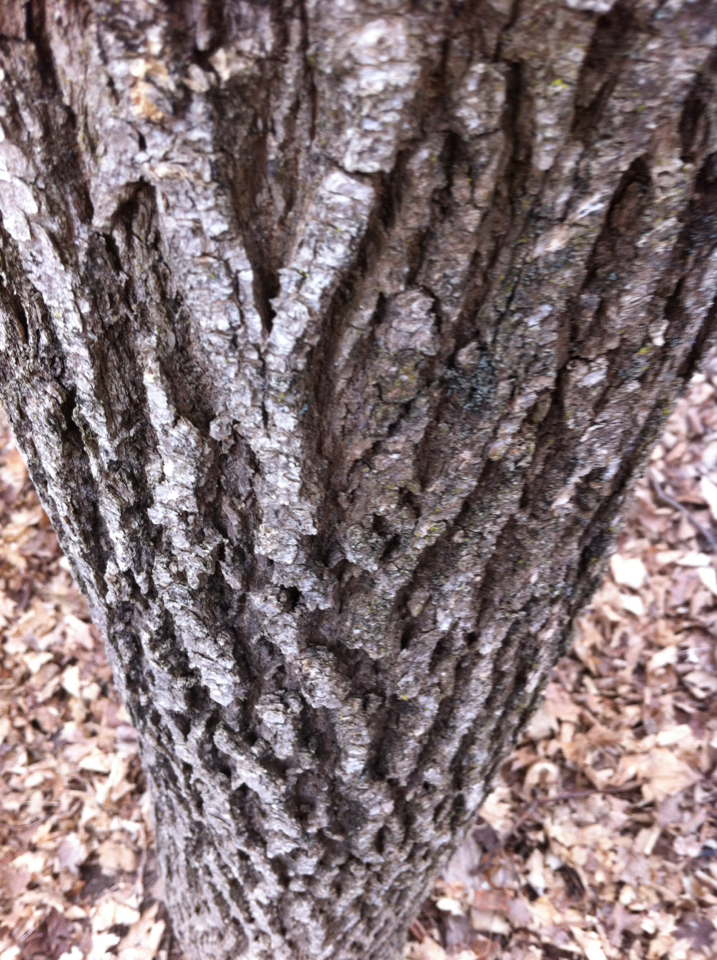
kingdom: Plantae
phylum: Tracheophyta
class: Magnoliopsida
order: Lamiales
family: Oleaceae
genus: Fraxinus
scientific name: Fraxinus americana
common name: White ash
